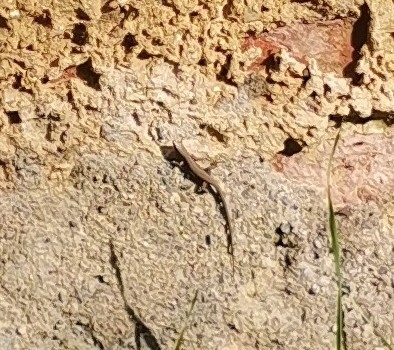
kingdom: Animalia
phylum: Chordata
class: Squamata
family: Lacertidae
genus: Podarcis
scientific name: Podarcis muralis
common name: Common wall lizard
